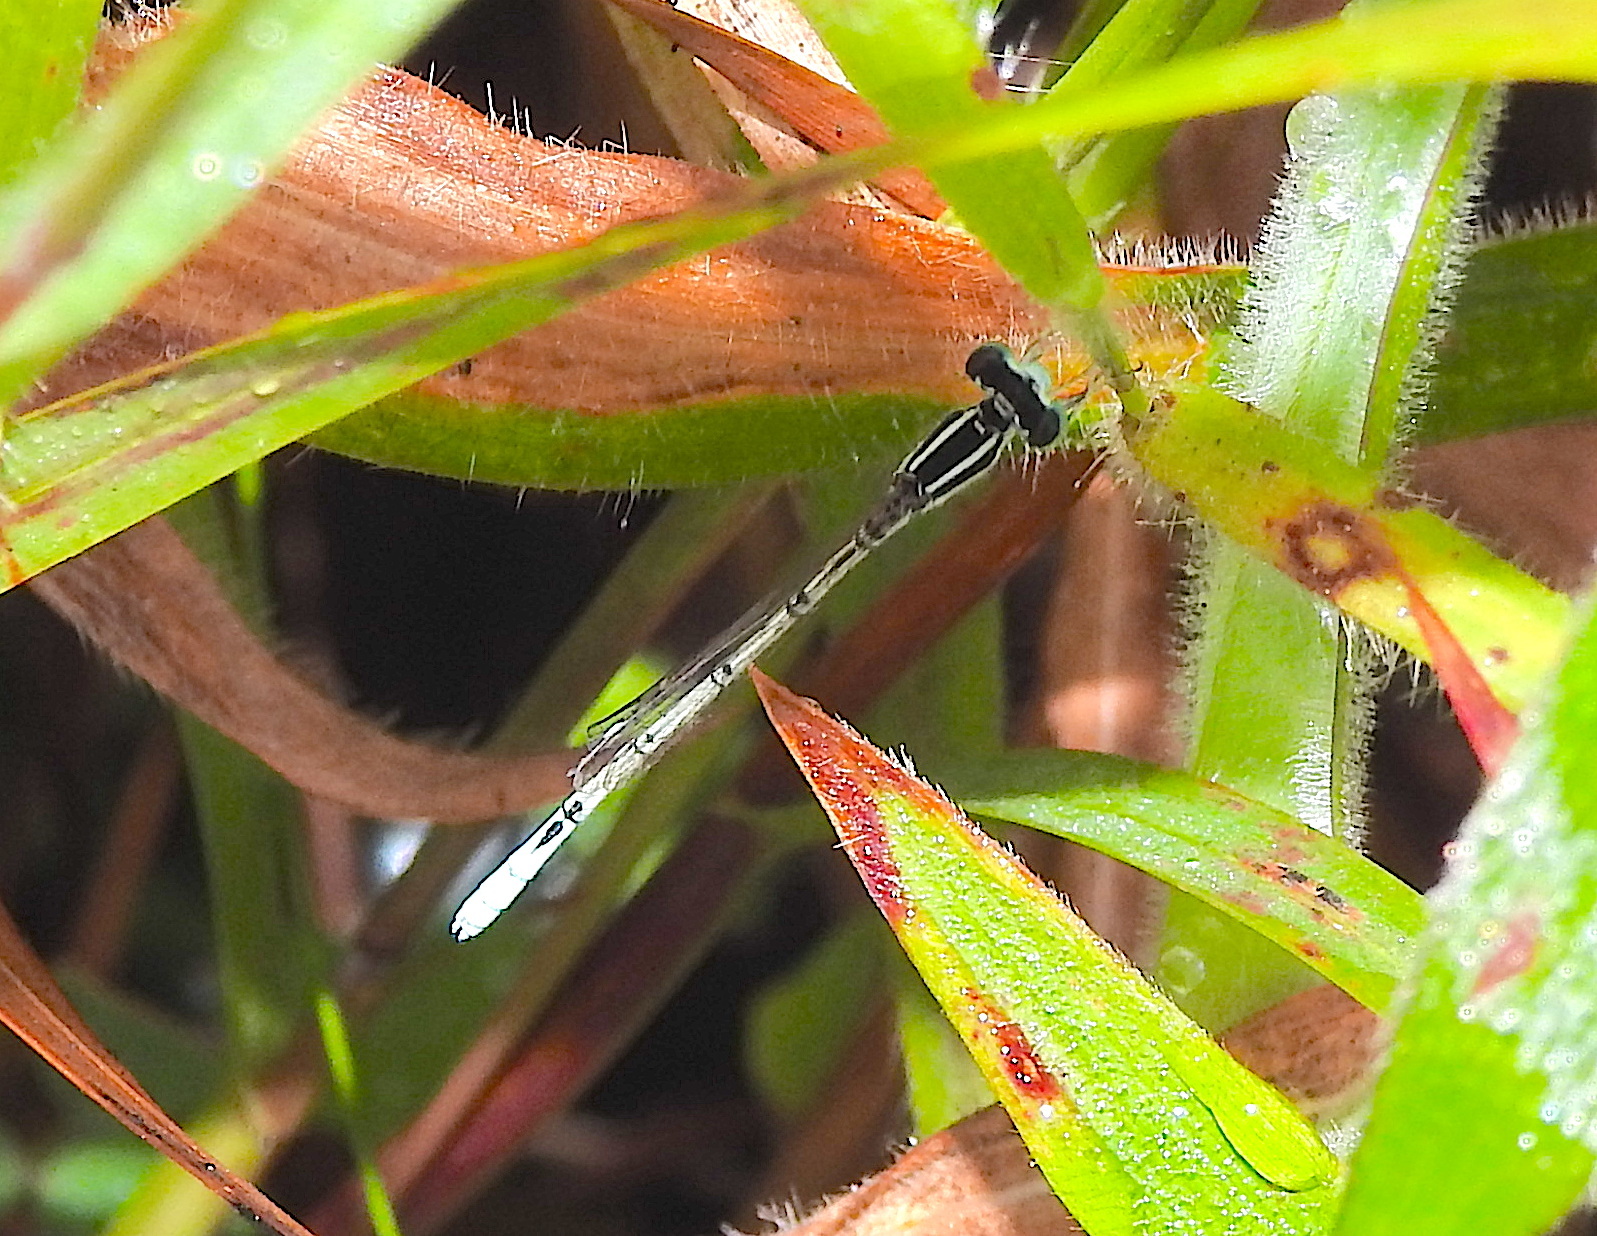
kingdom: Animalia
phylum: Arthropoda
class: Insecta
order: Odonata
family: Coenagrionidae
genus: Agriocnemis
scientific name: Agriocnemis pieris
